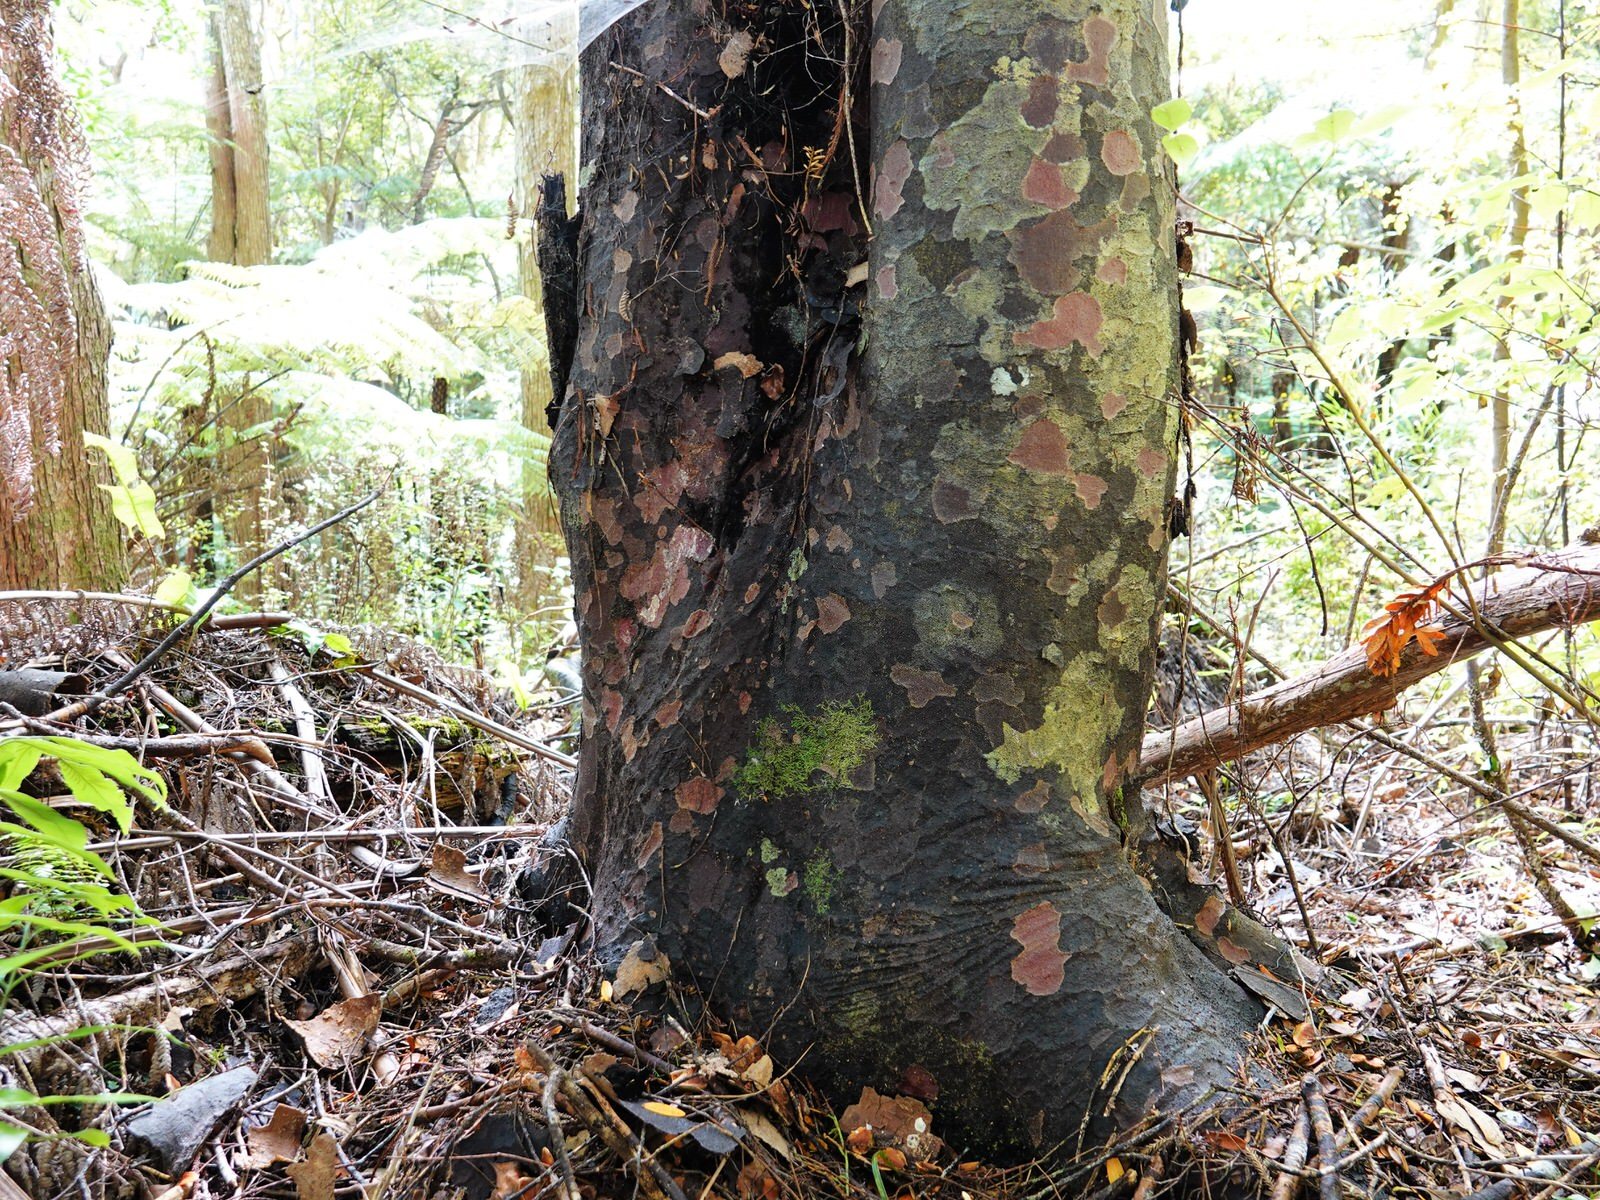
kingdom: Plantae
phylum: Tracheophyta
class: Pinopsida
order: Pinales
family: Podocarpaceae
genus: Prumnopitys
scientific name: Prumnopitys taxifolia
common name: Matai
